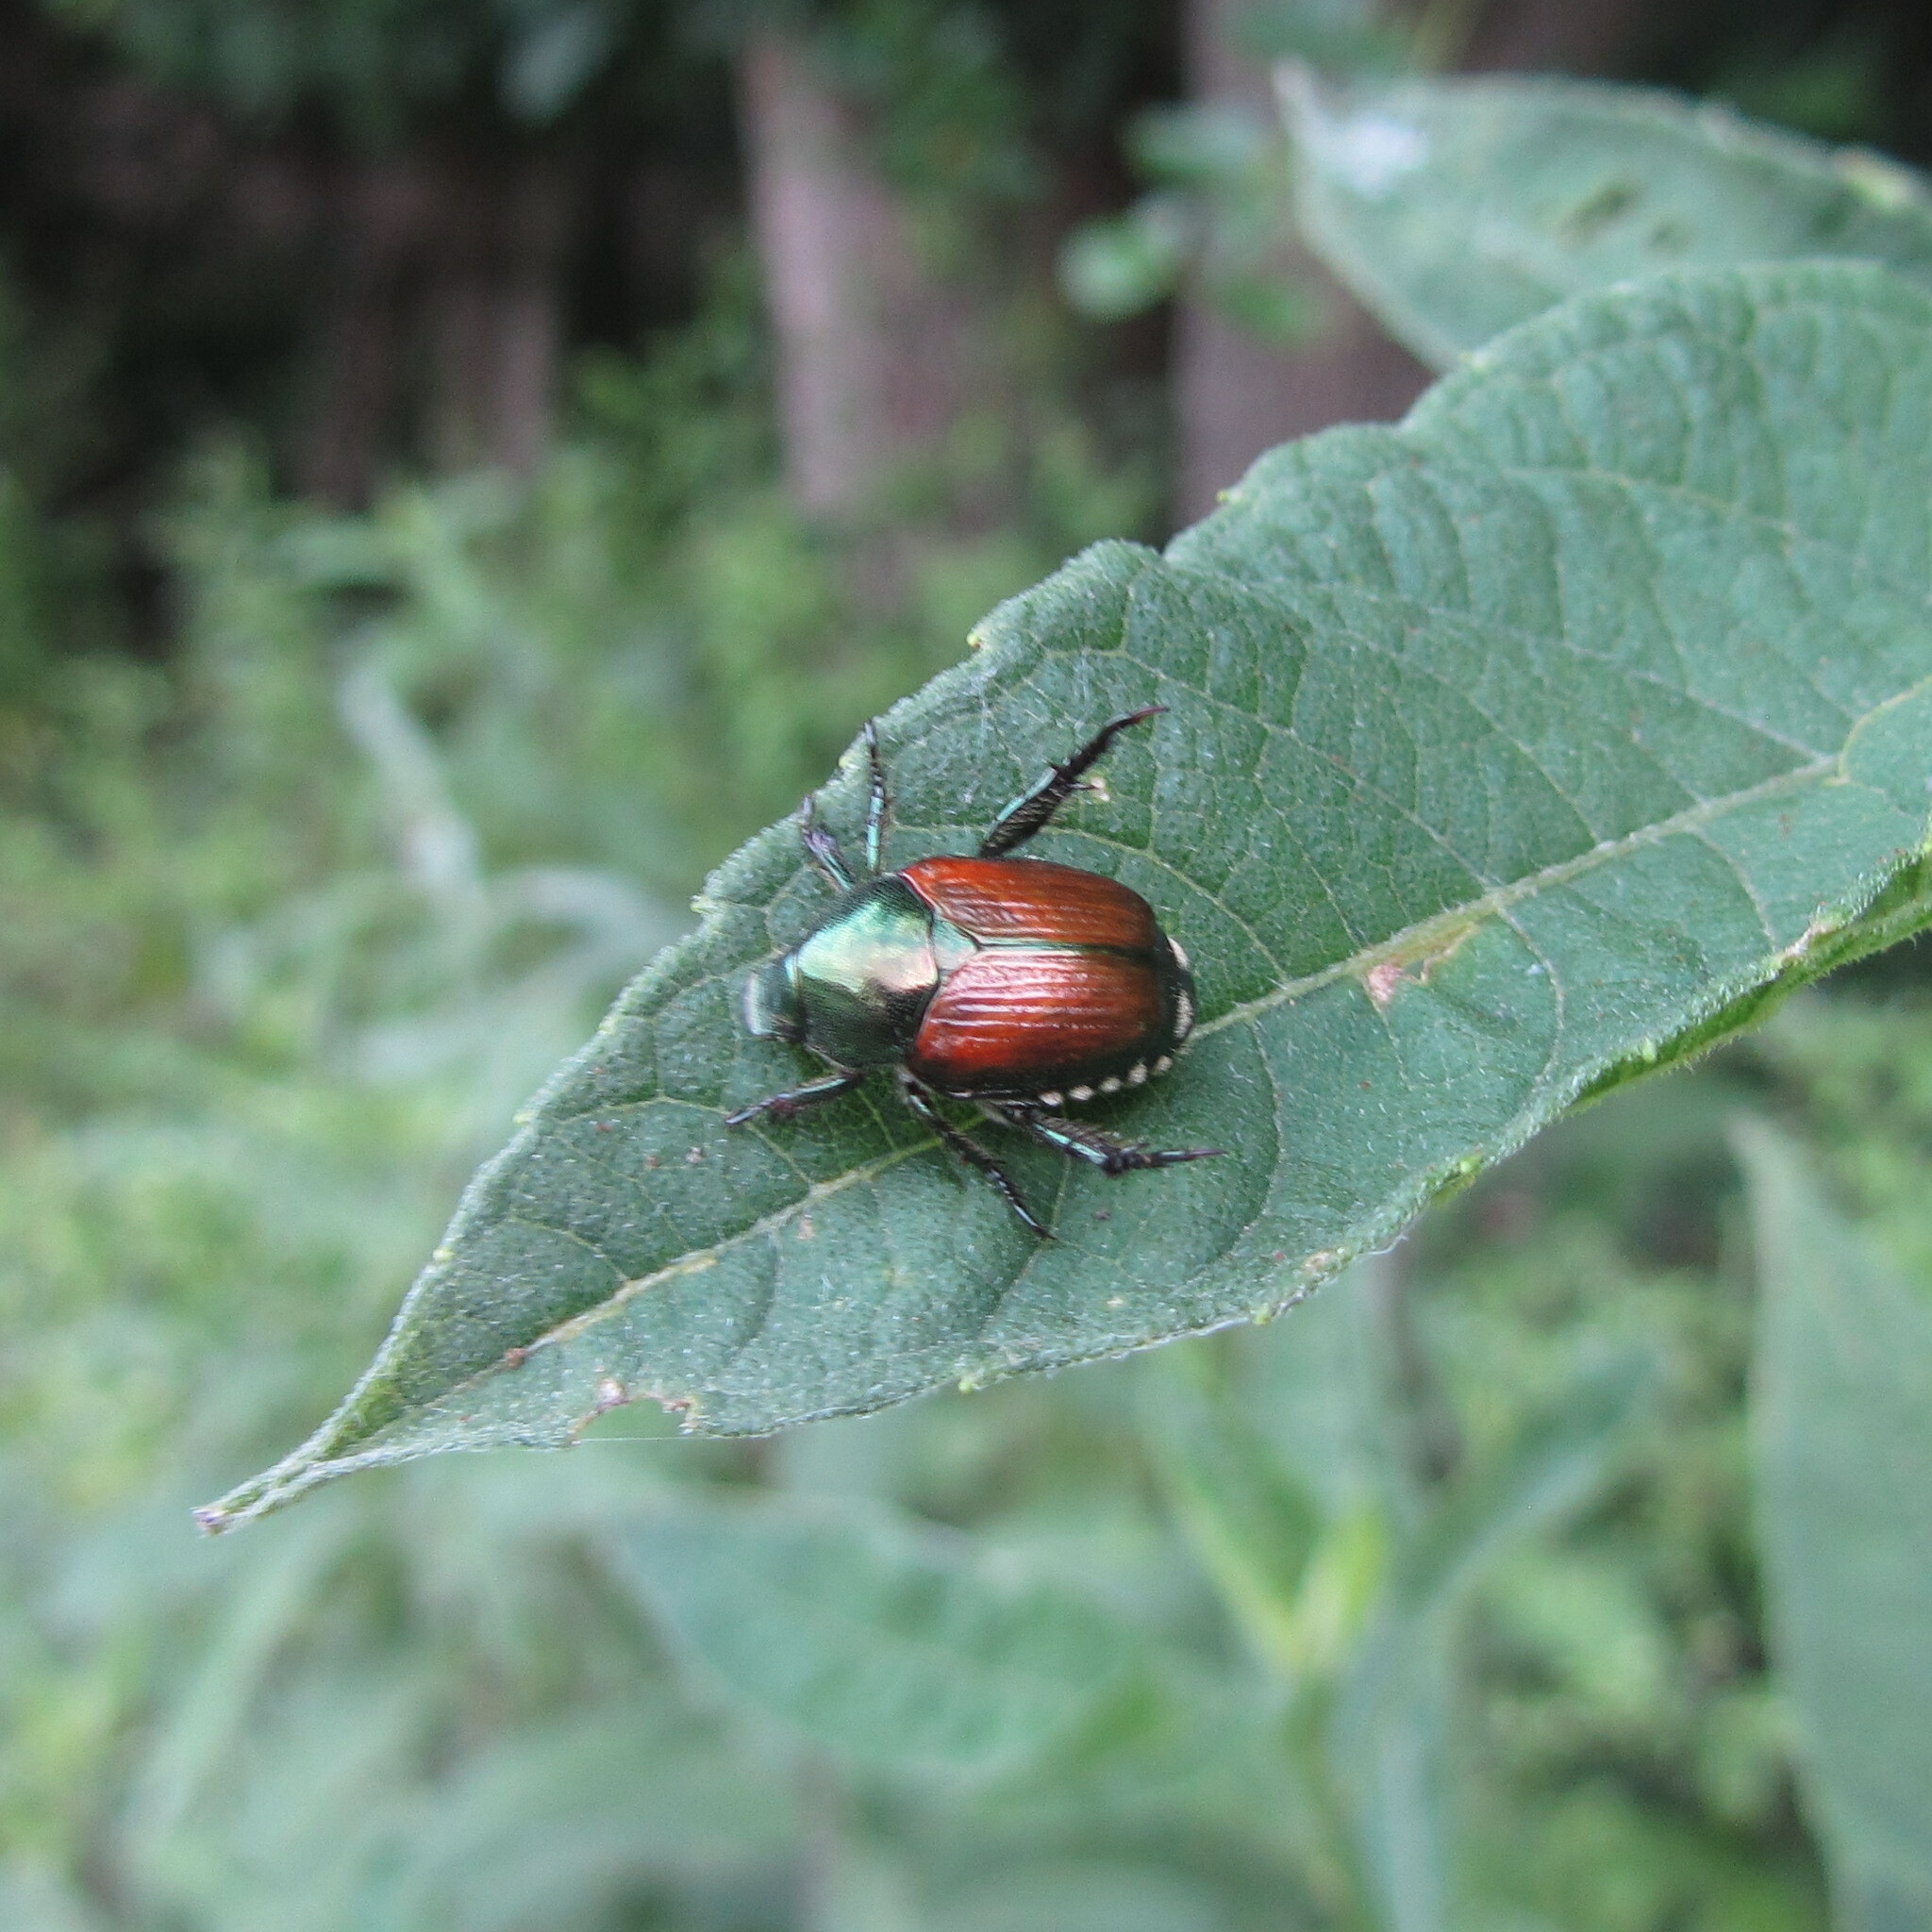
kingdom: Animalia
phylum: Arthropoda
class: Insecta
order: Coleoptera
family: Scarabaeidae
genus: Popillia
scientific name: Popillia japonica
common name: Japanese beetle
